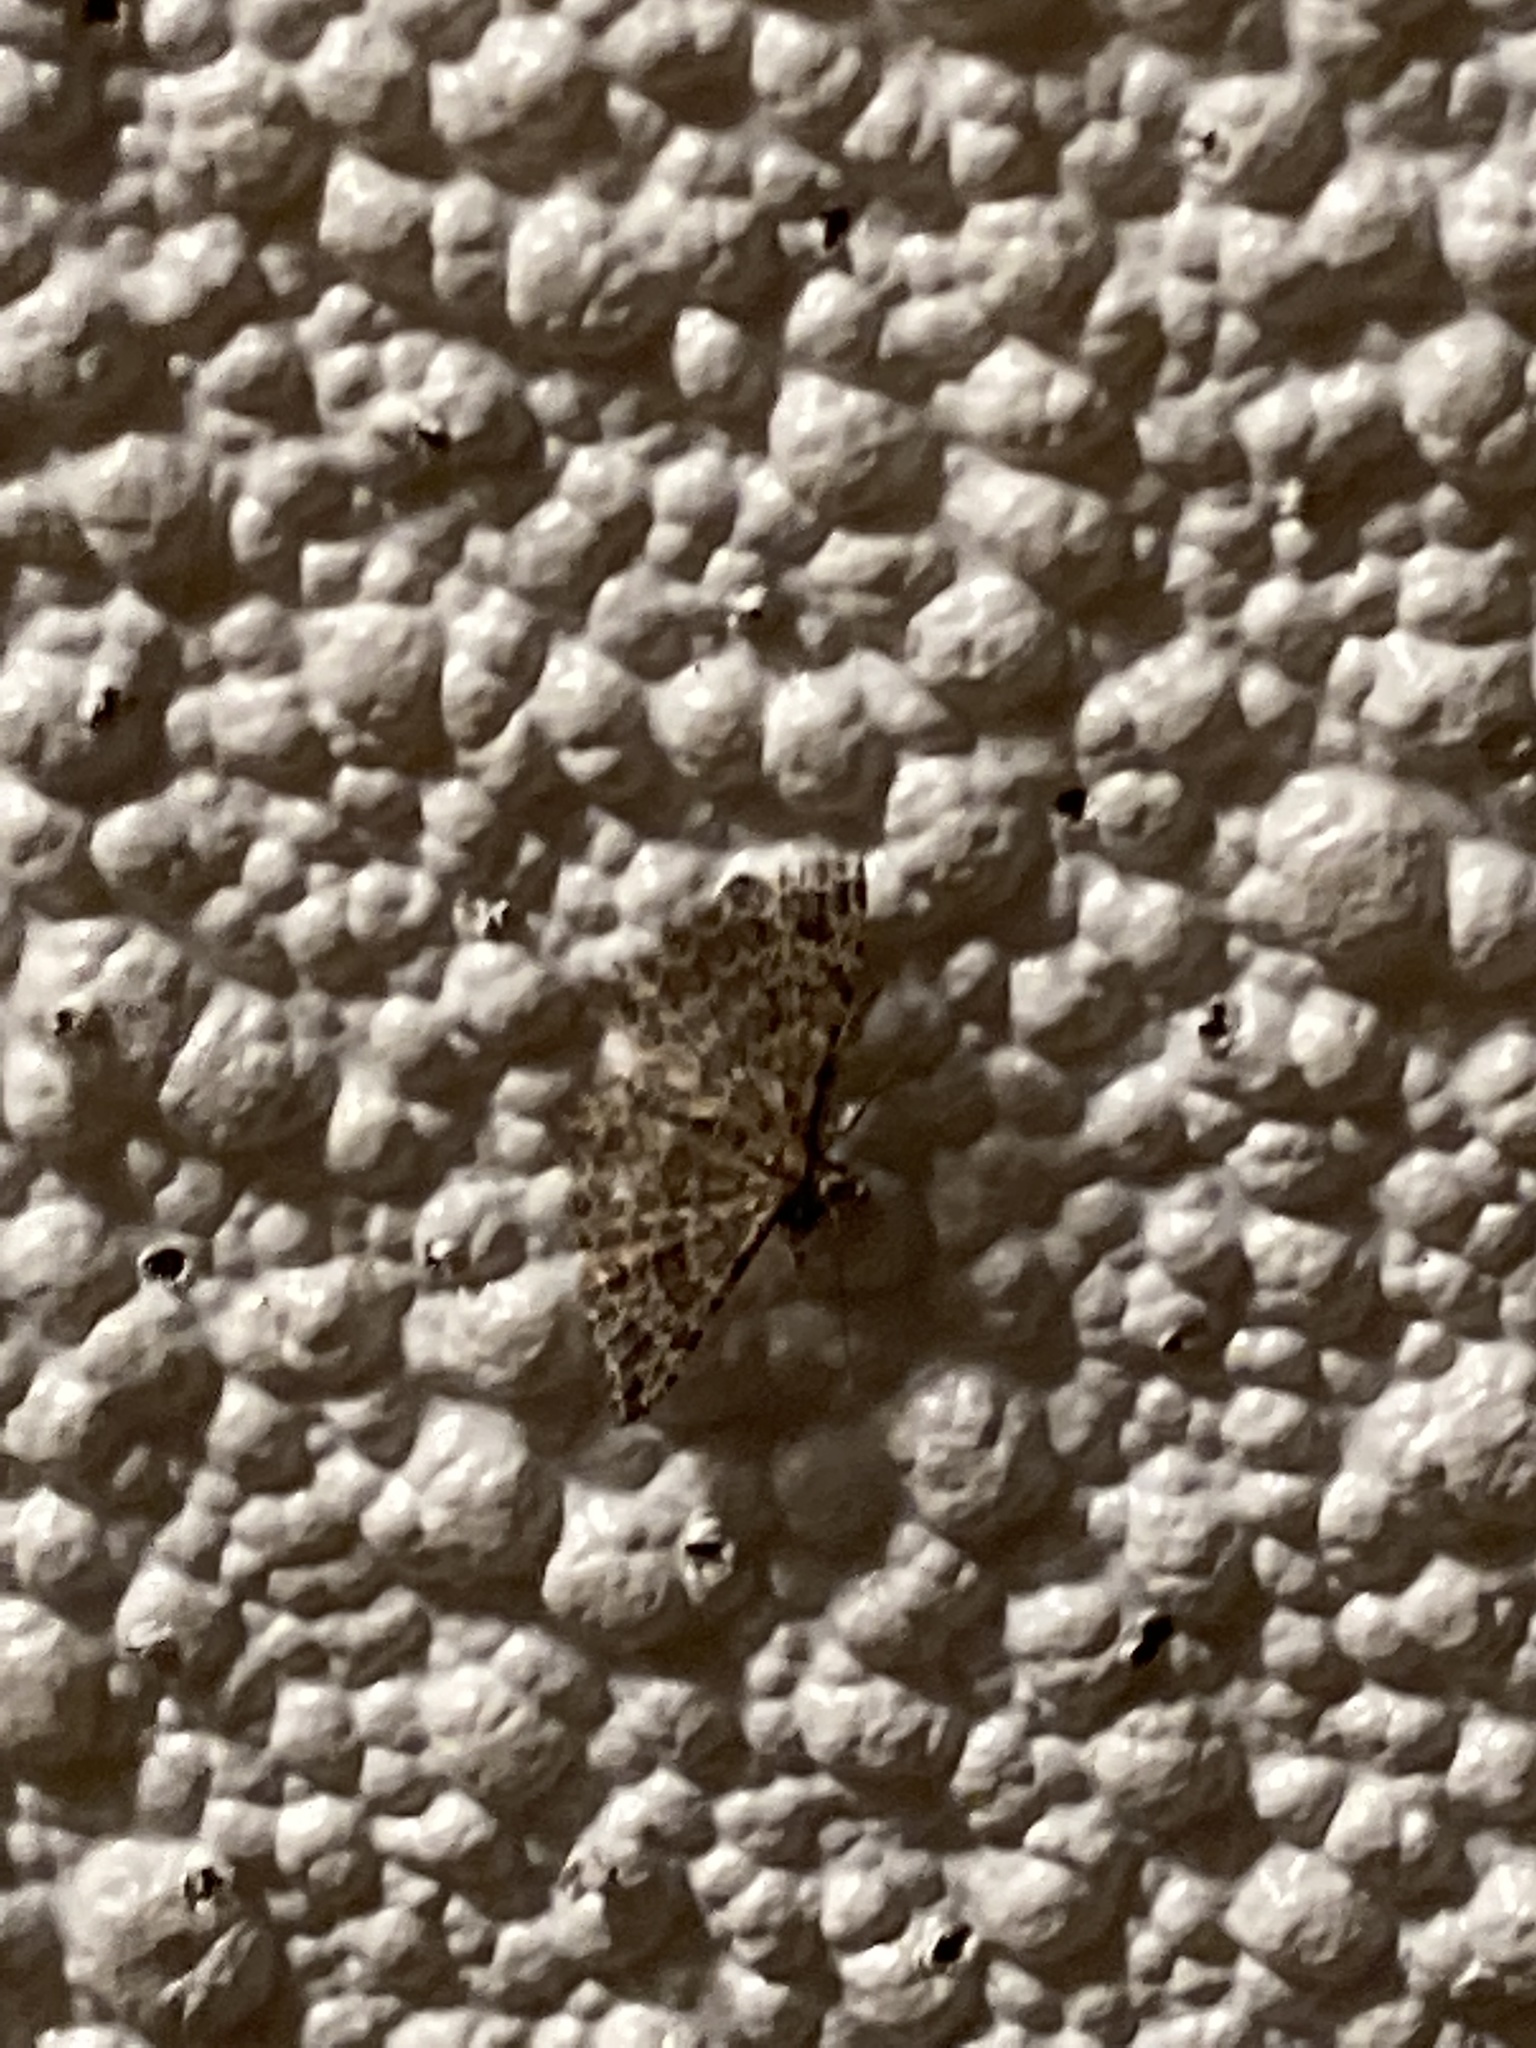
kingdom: Animalia
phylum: Arthropoda
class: Insecta
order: Lepidoptera
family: Alucitidae
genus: Alucita
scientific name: Alucita montana
